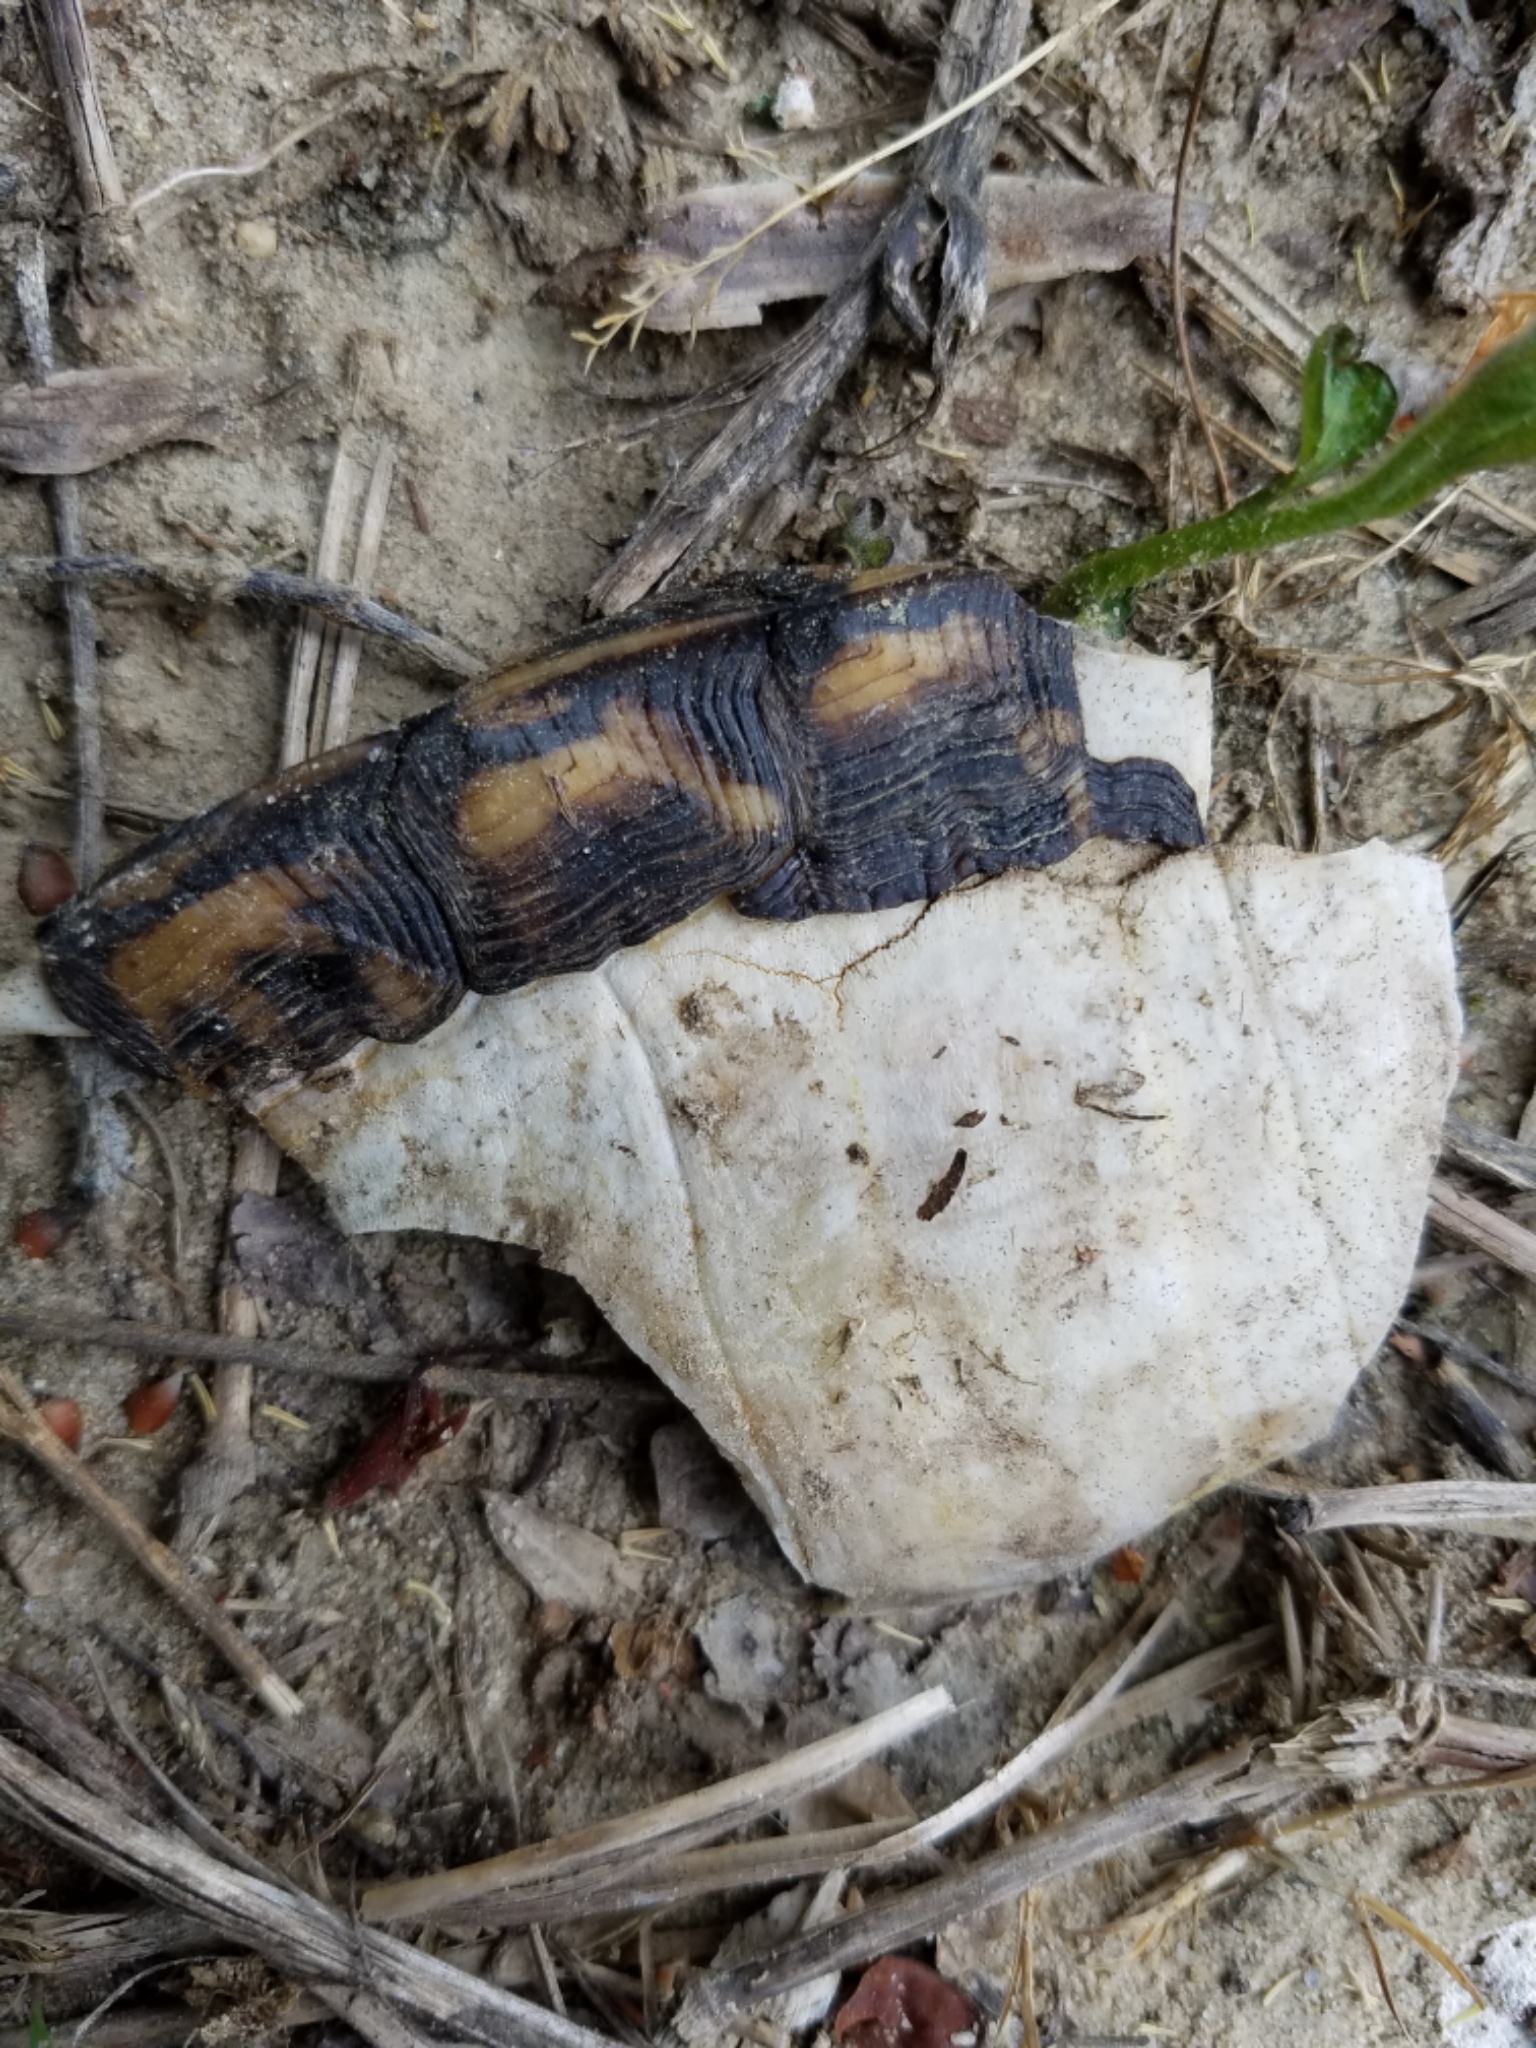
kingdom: Animalia
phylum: Chordata
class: Testudines
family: Emydidae
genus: Terrapene
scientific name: Terrapene carolina
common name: Common box turtle
